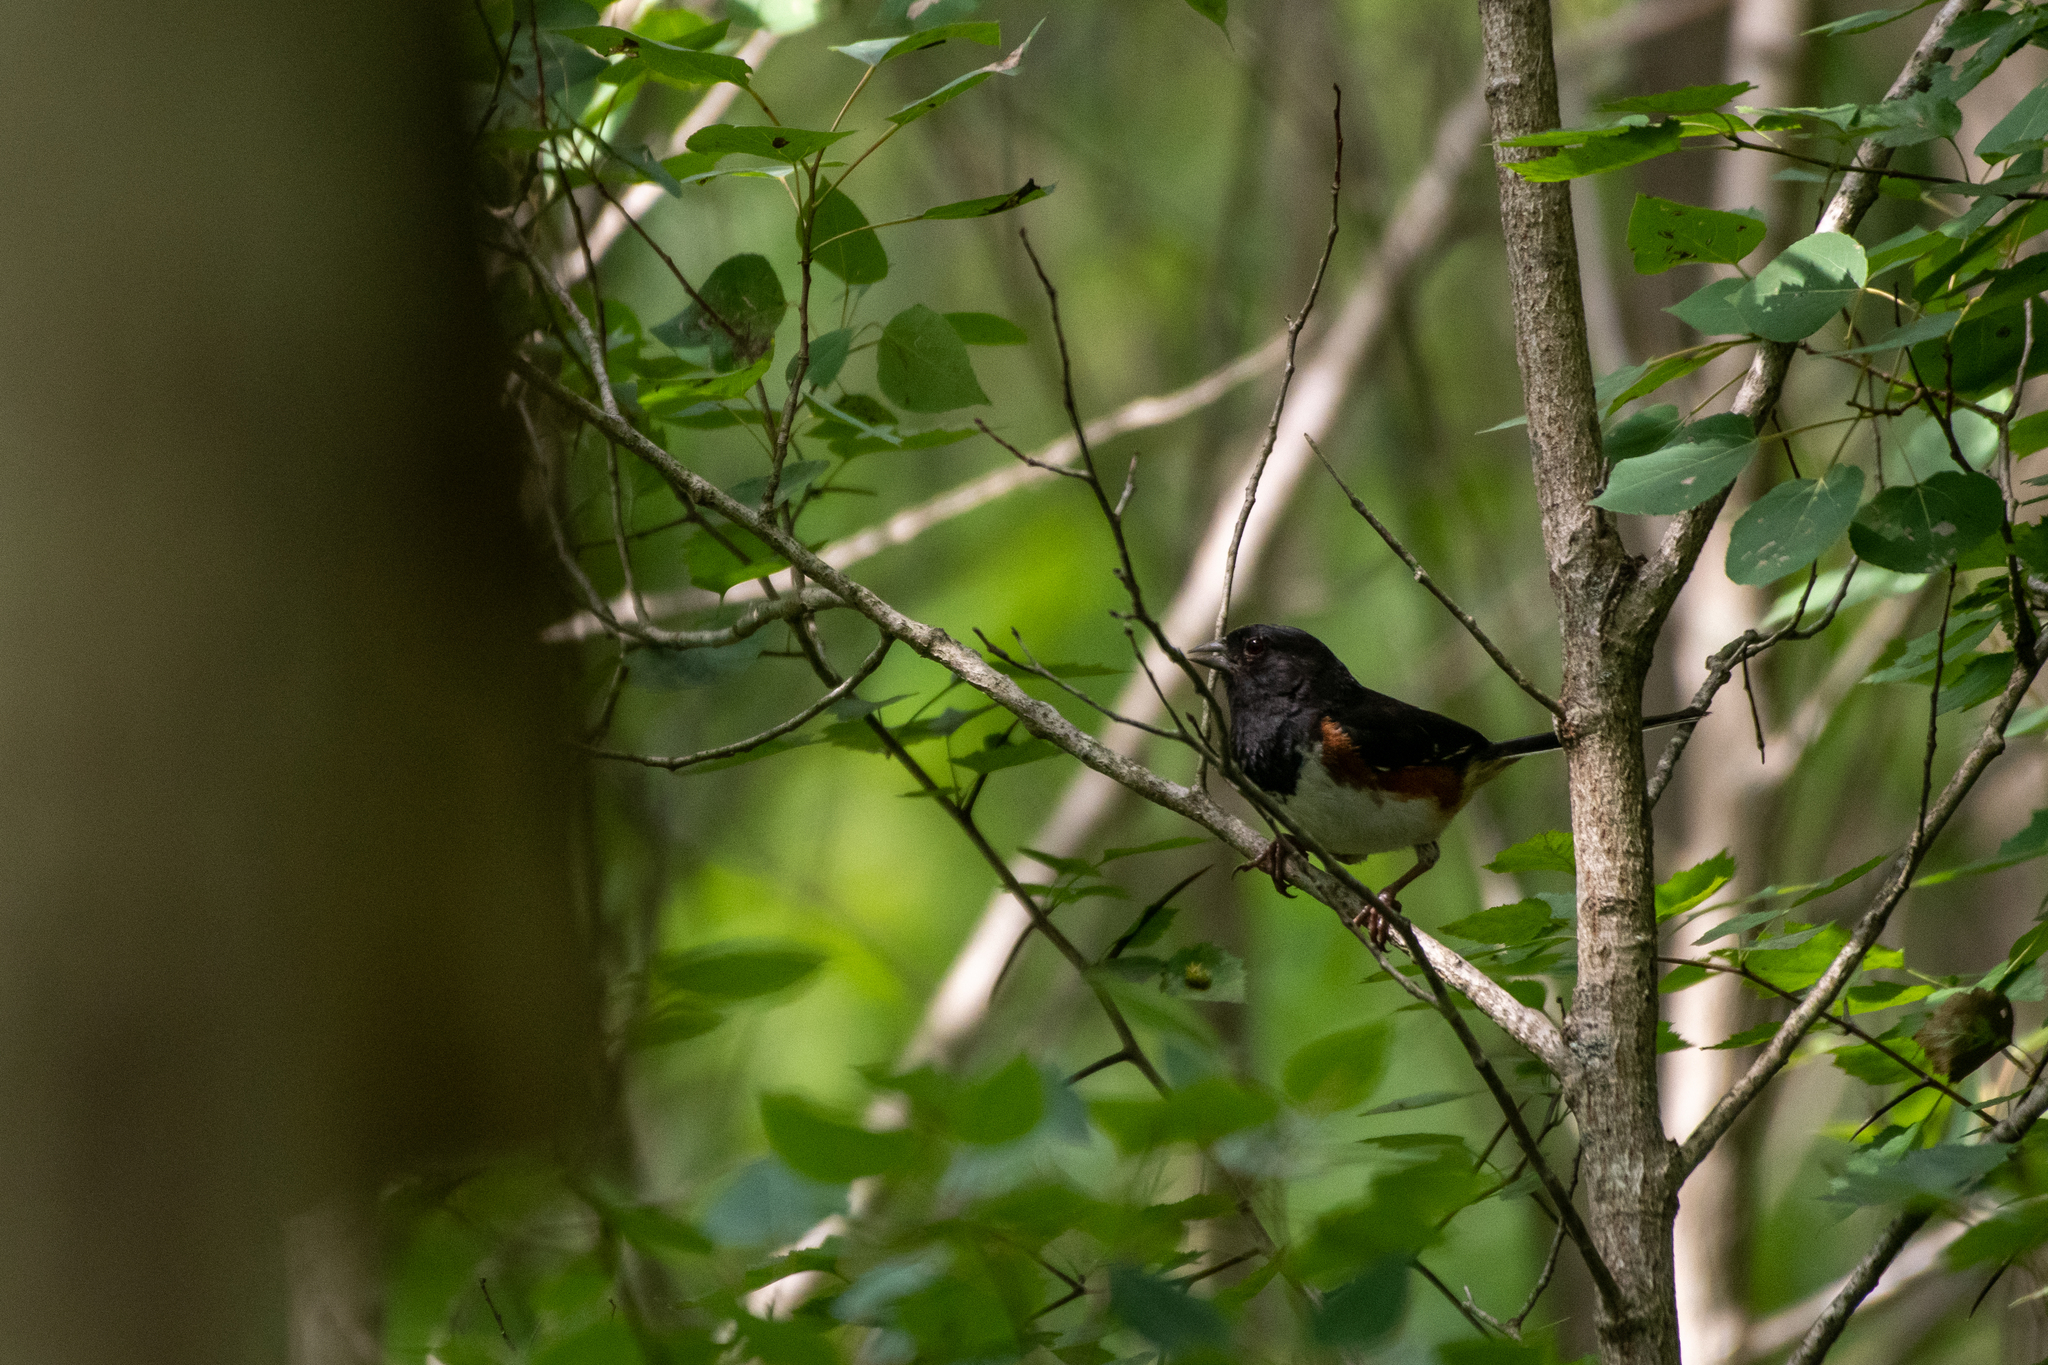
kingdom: Animalia
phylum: Chordata
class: Aves
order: Passeriformes
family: Passerellidae
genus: Pipilo
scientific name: Pipilo erythrophthalmus
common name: Eastern towhee
